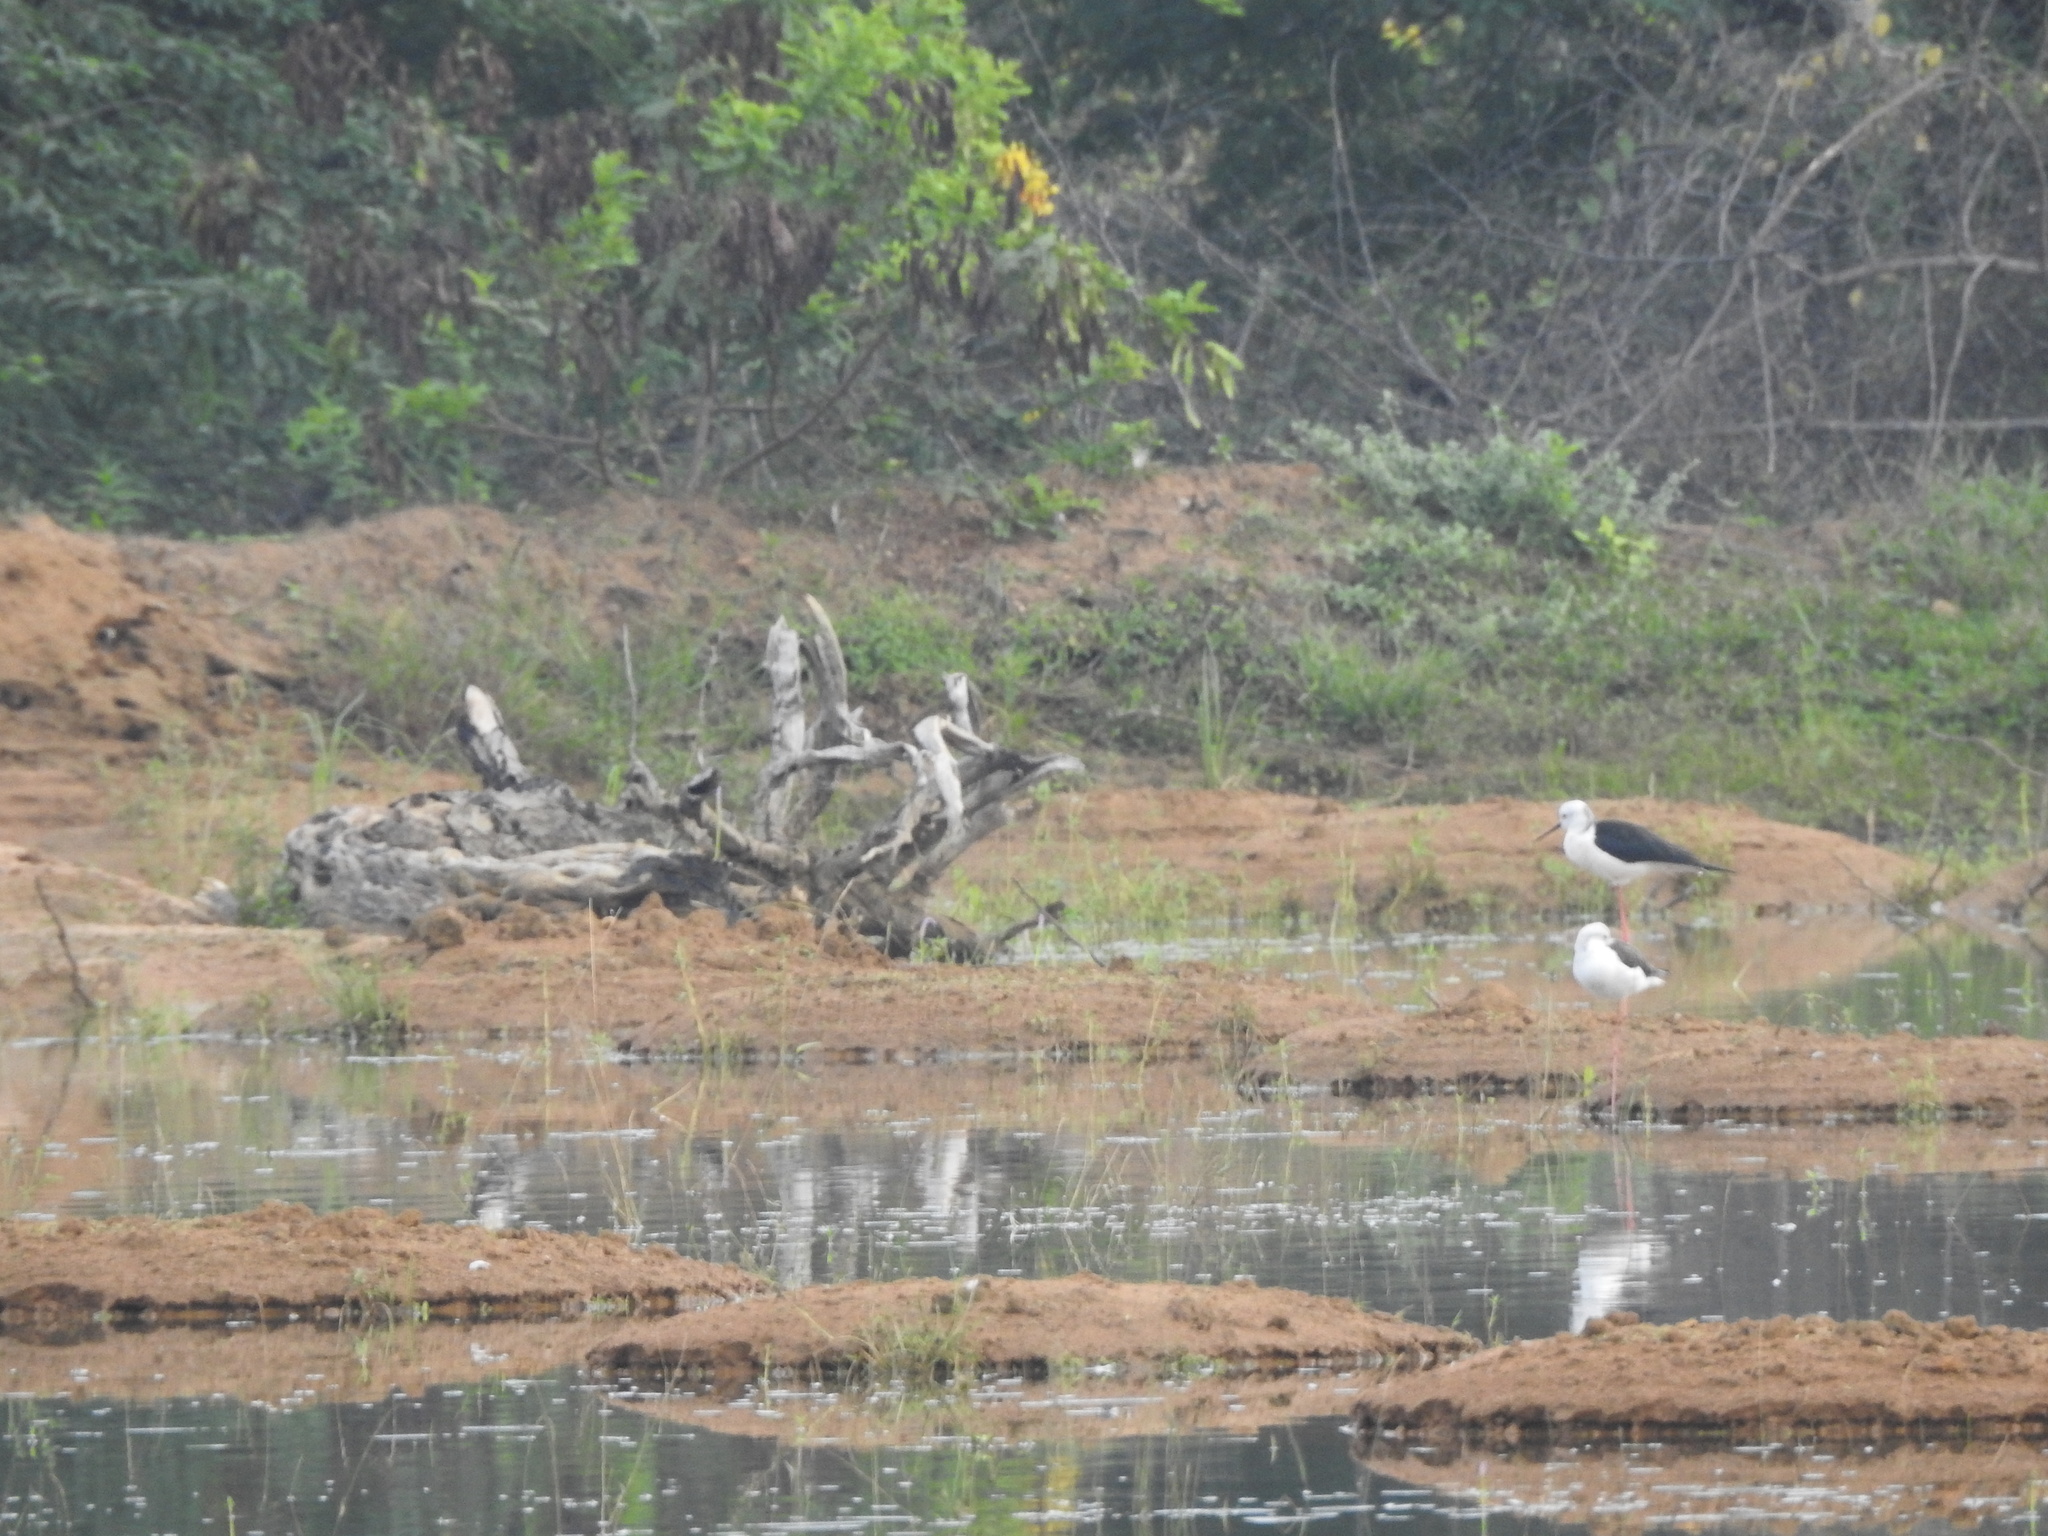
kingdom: Animalia
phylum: Chordata
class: Aves
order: Charadriiformes
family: Recurvirostridae
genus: Himantopus
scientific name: Himantopus himantopus
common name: Black-winged stilt
